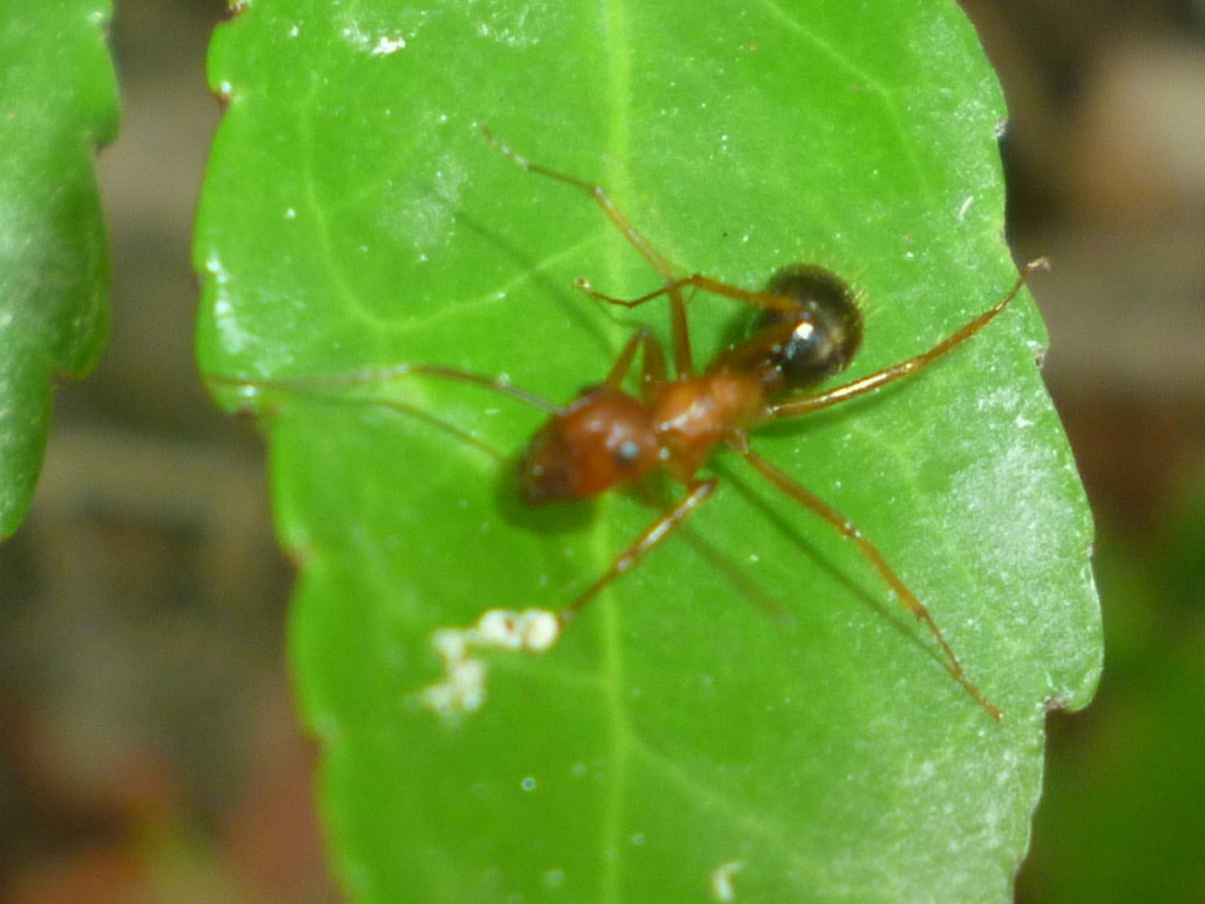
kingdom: Animalia
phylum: Arthropoda
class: Insecta
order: Hymenoptera
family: Formicidae
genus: Camponotus
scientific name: Camponotus floridanus
